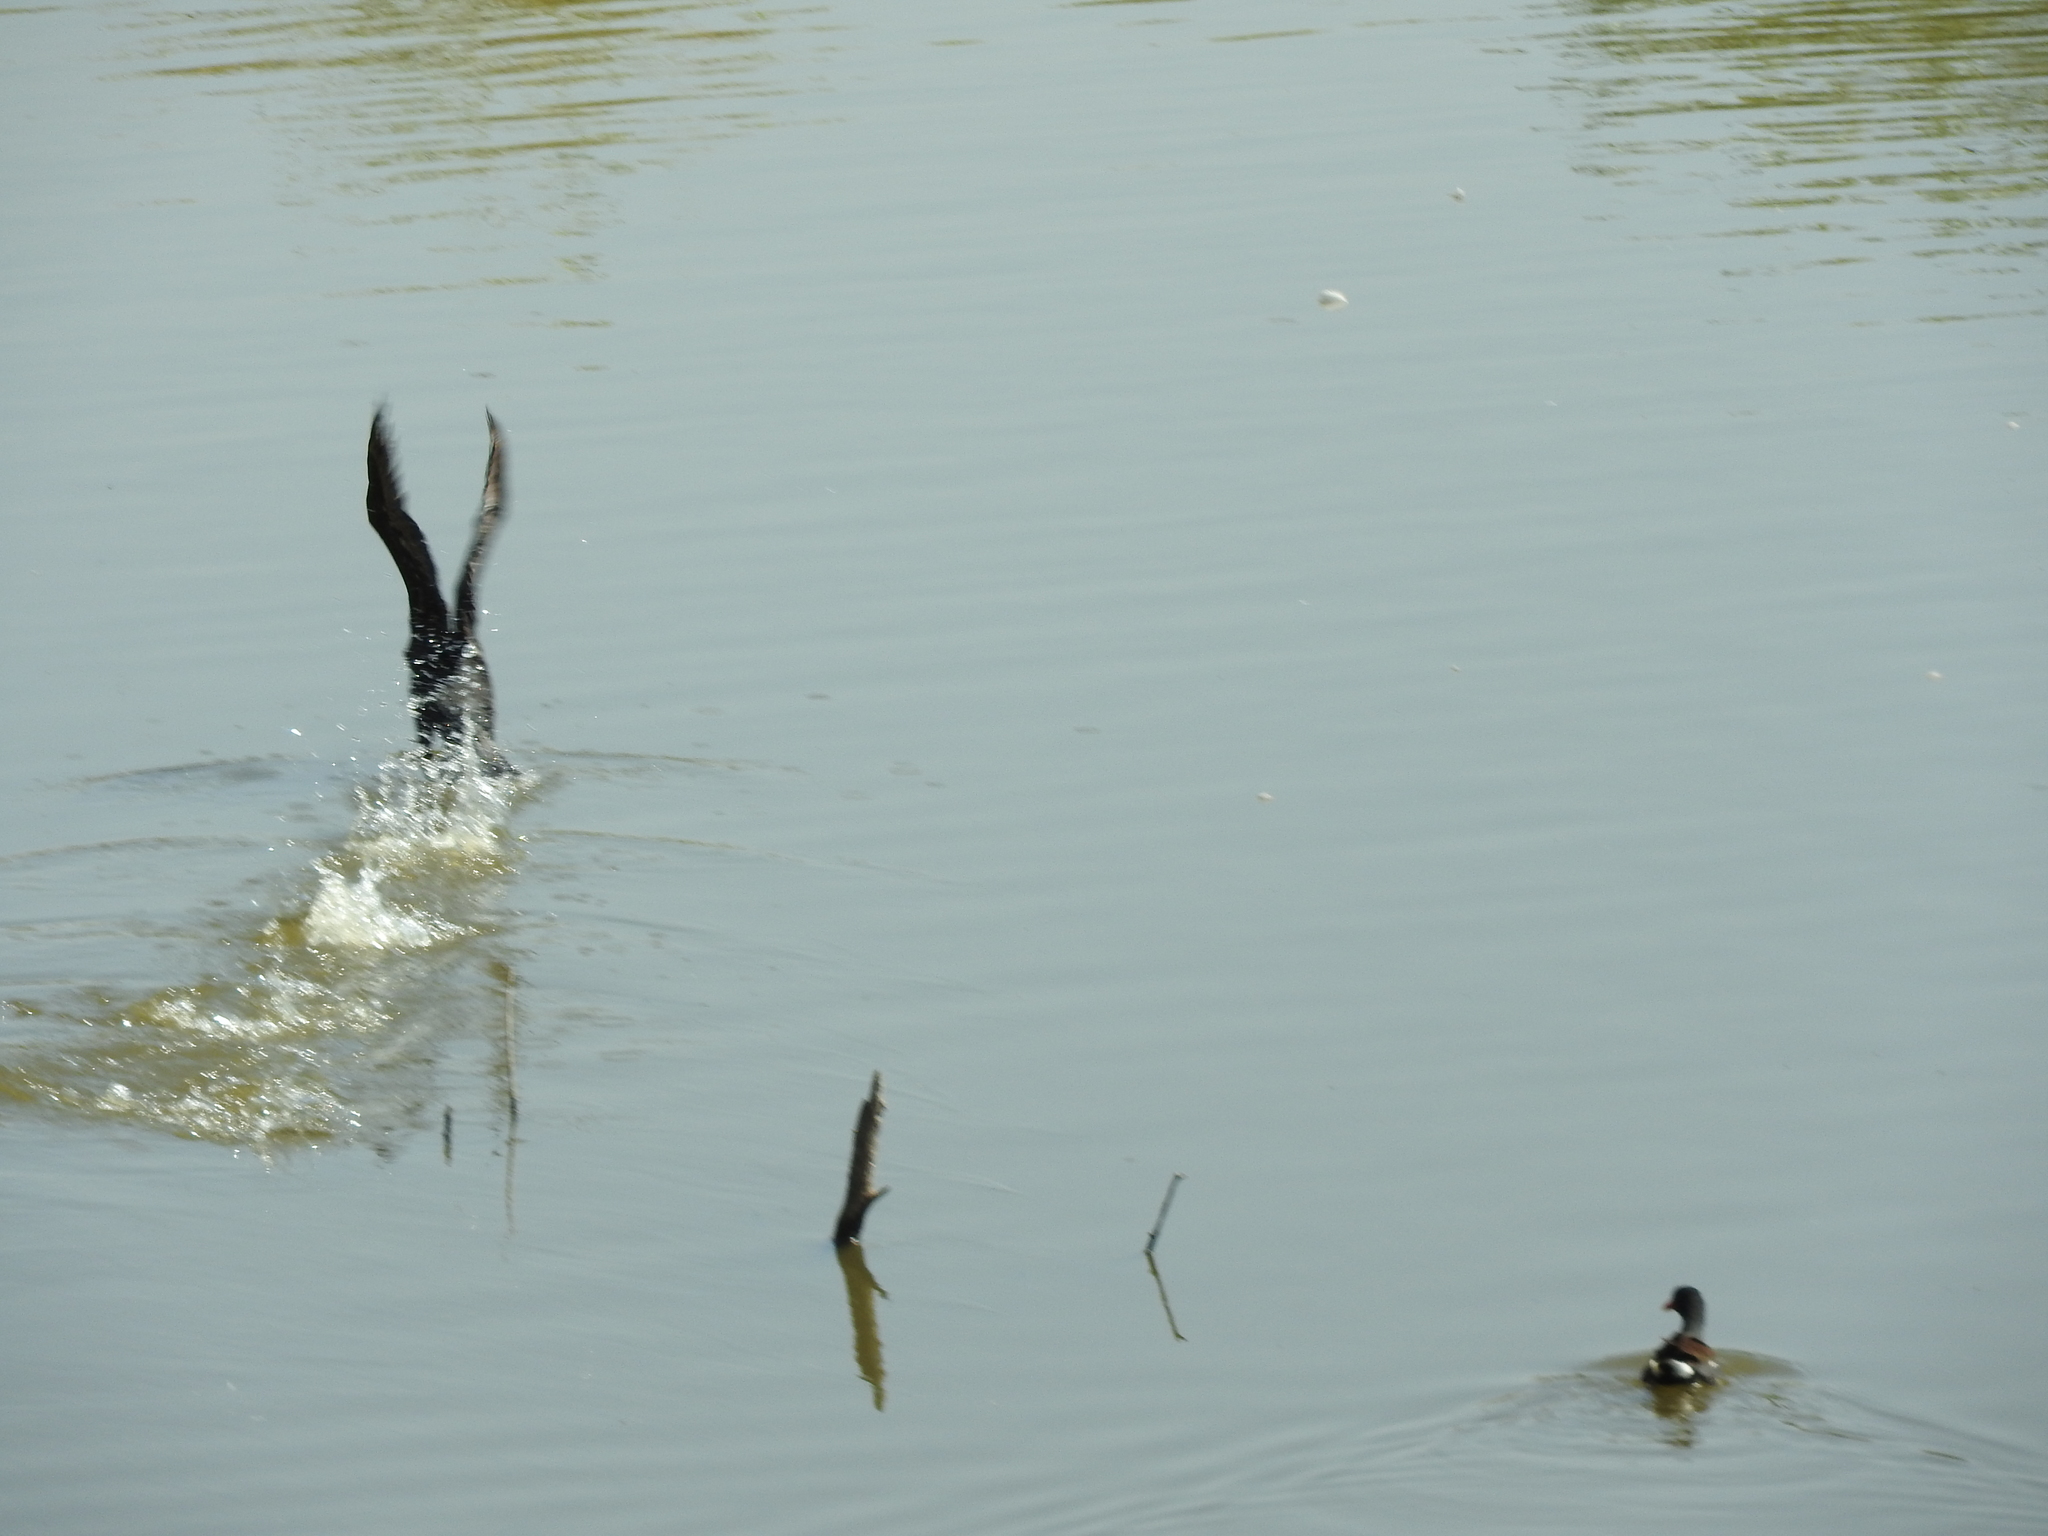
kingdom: Animalia
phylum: Chordata
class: Aves
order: Gruiformes
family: Rallidae
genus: Gallinula
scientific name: Gallinula chloropus
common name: Common moorhen
